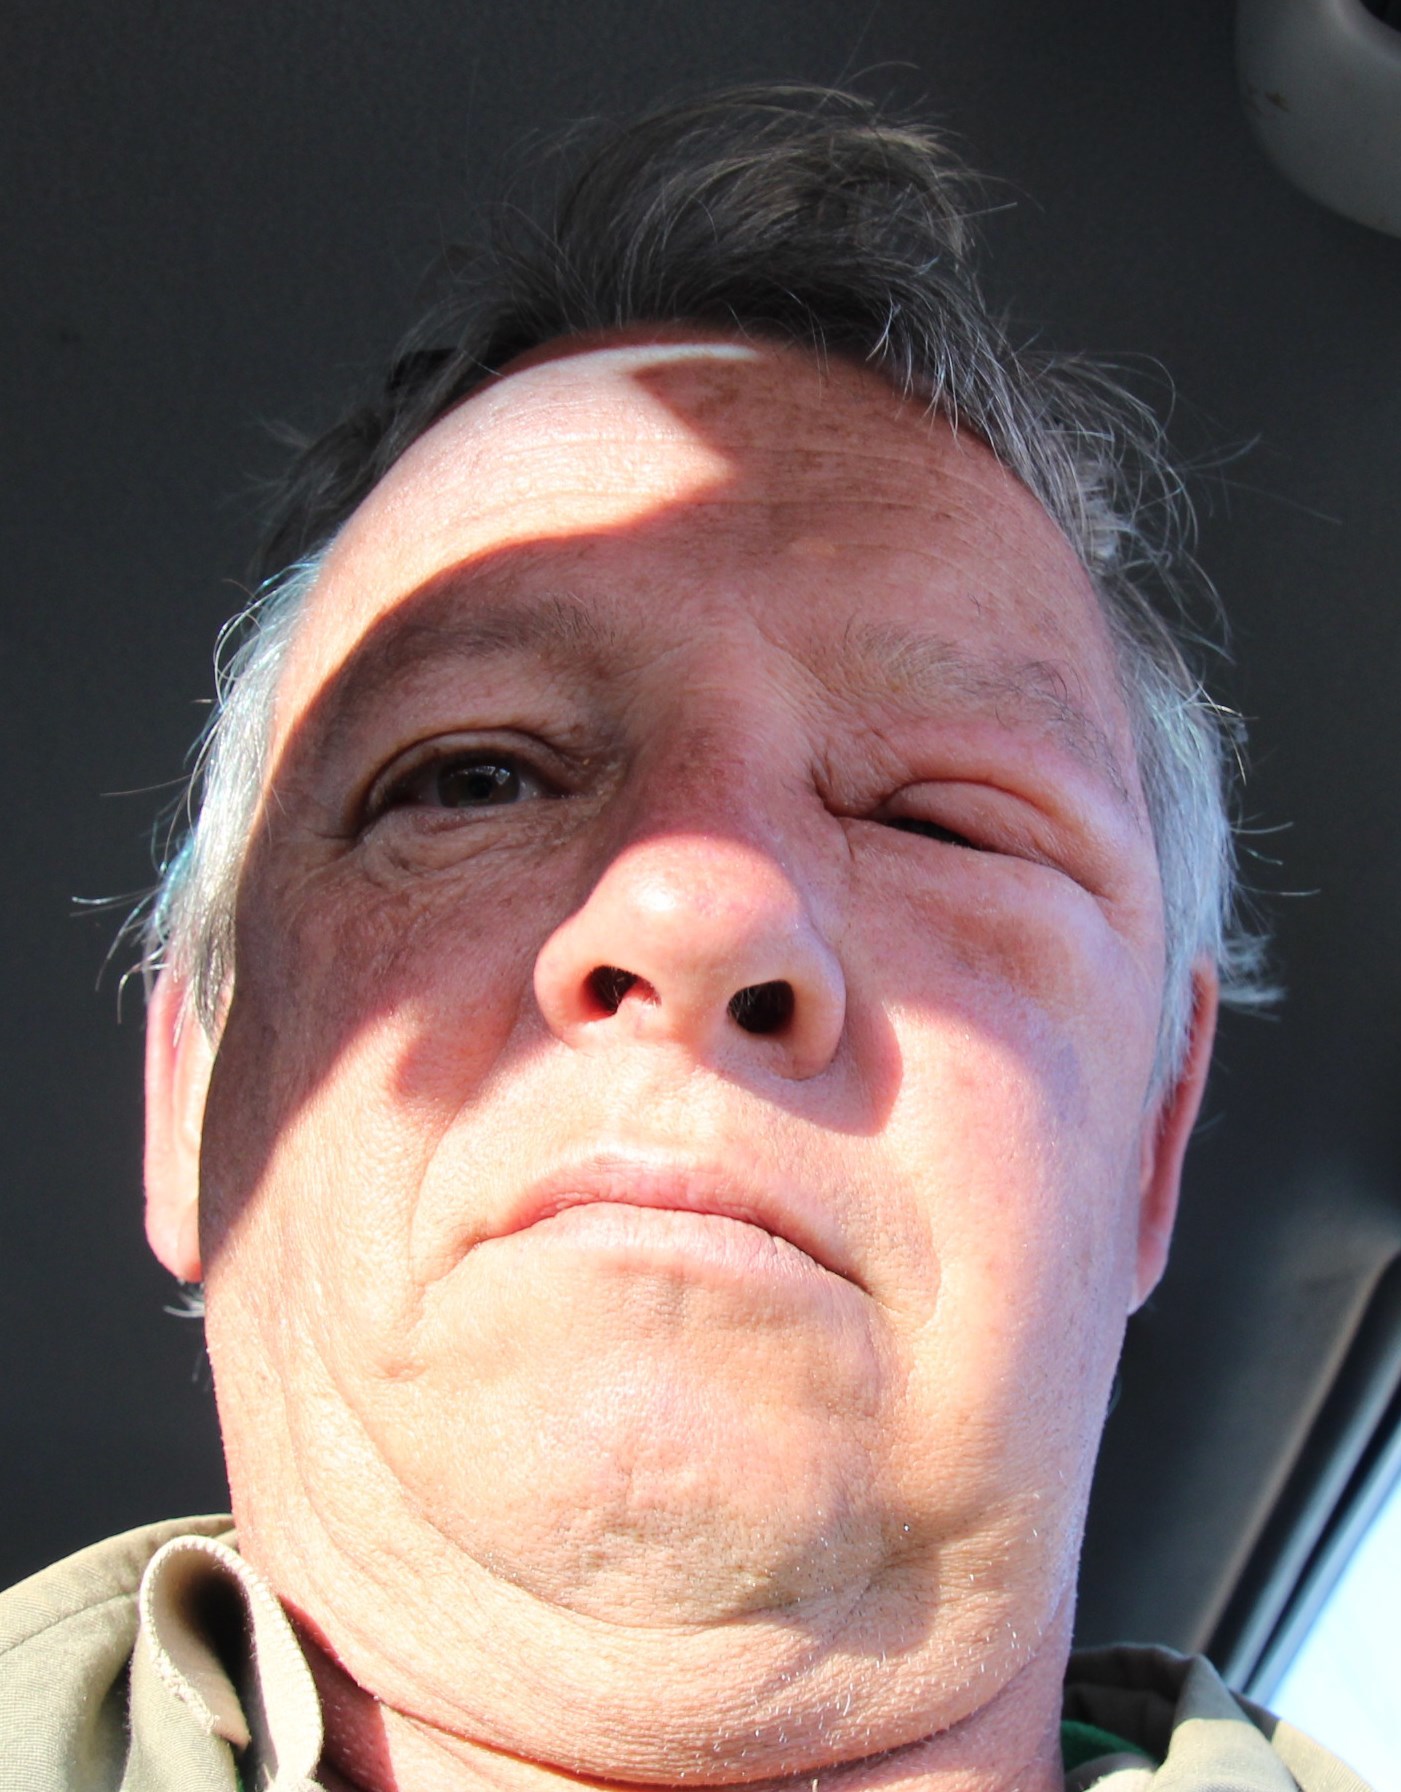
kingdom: Animalia
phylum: Arthropoda
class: Insecta
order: Hymenoptera
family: Apidae
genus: Apis
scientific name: Apis mellifera
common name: Honey bee
